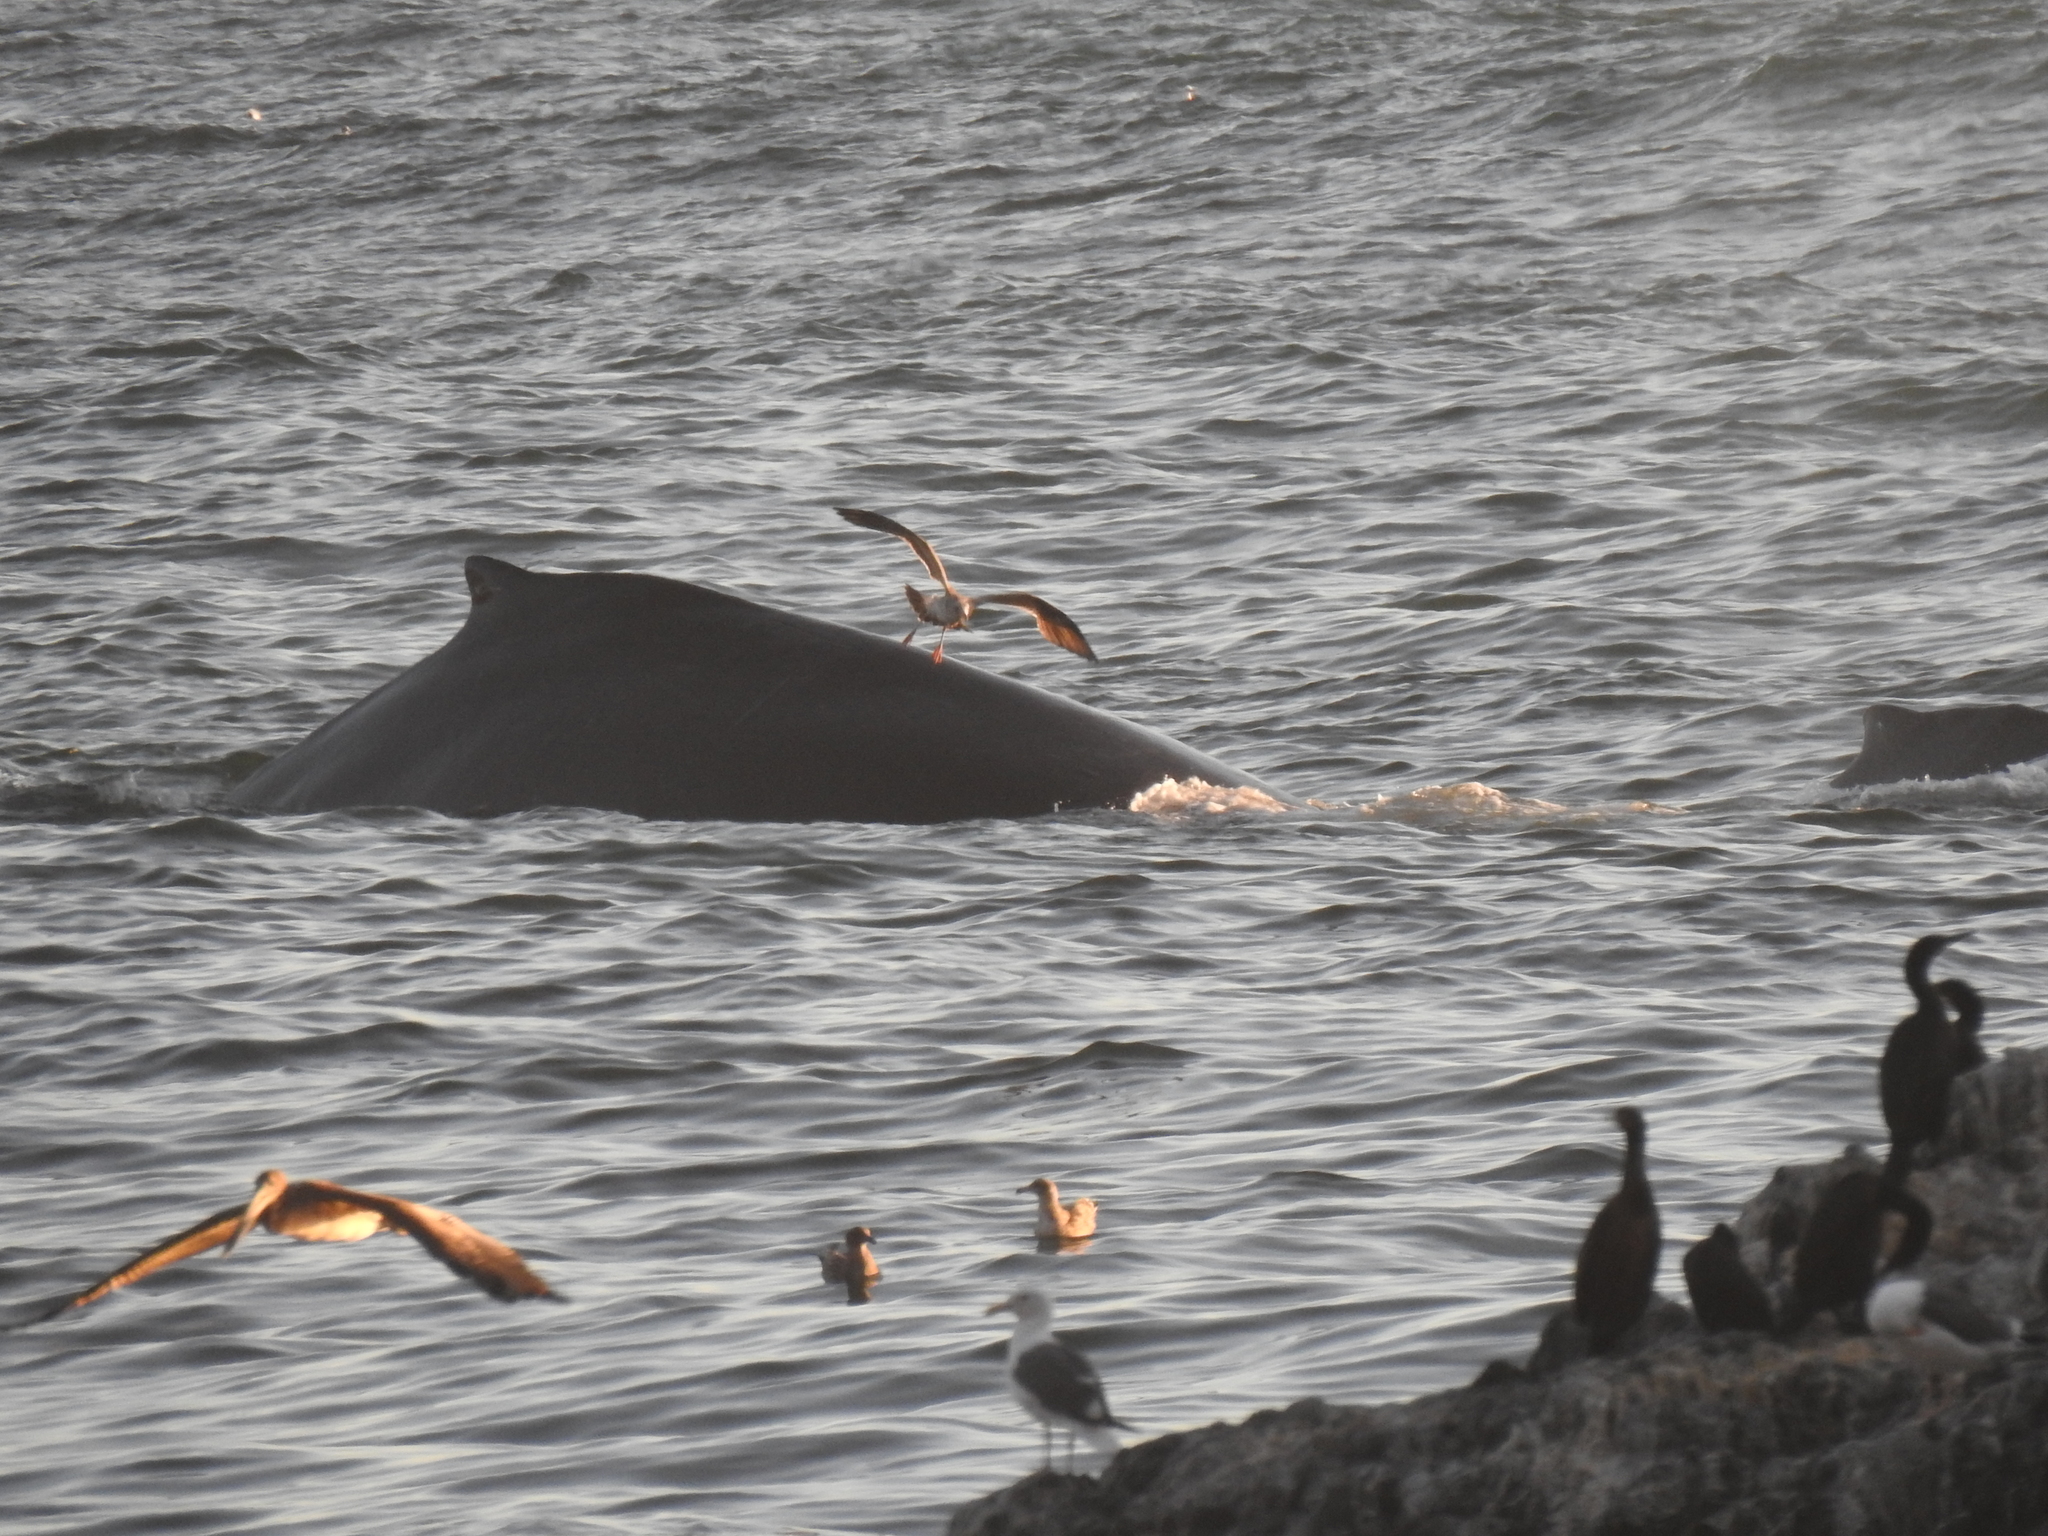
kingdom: Animalia
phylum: Chordata
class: Mammalia
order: Cetacea
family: Balaenopteridae
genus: Megaptera
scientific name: Megaptera novaeangliae
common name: Humpback whale
